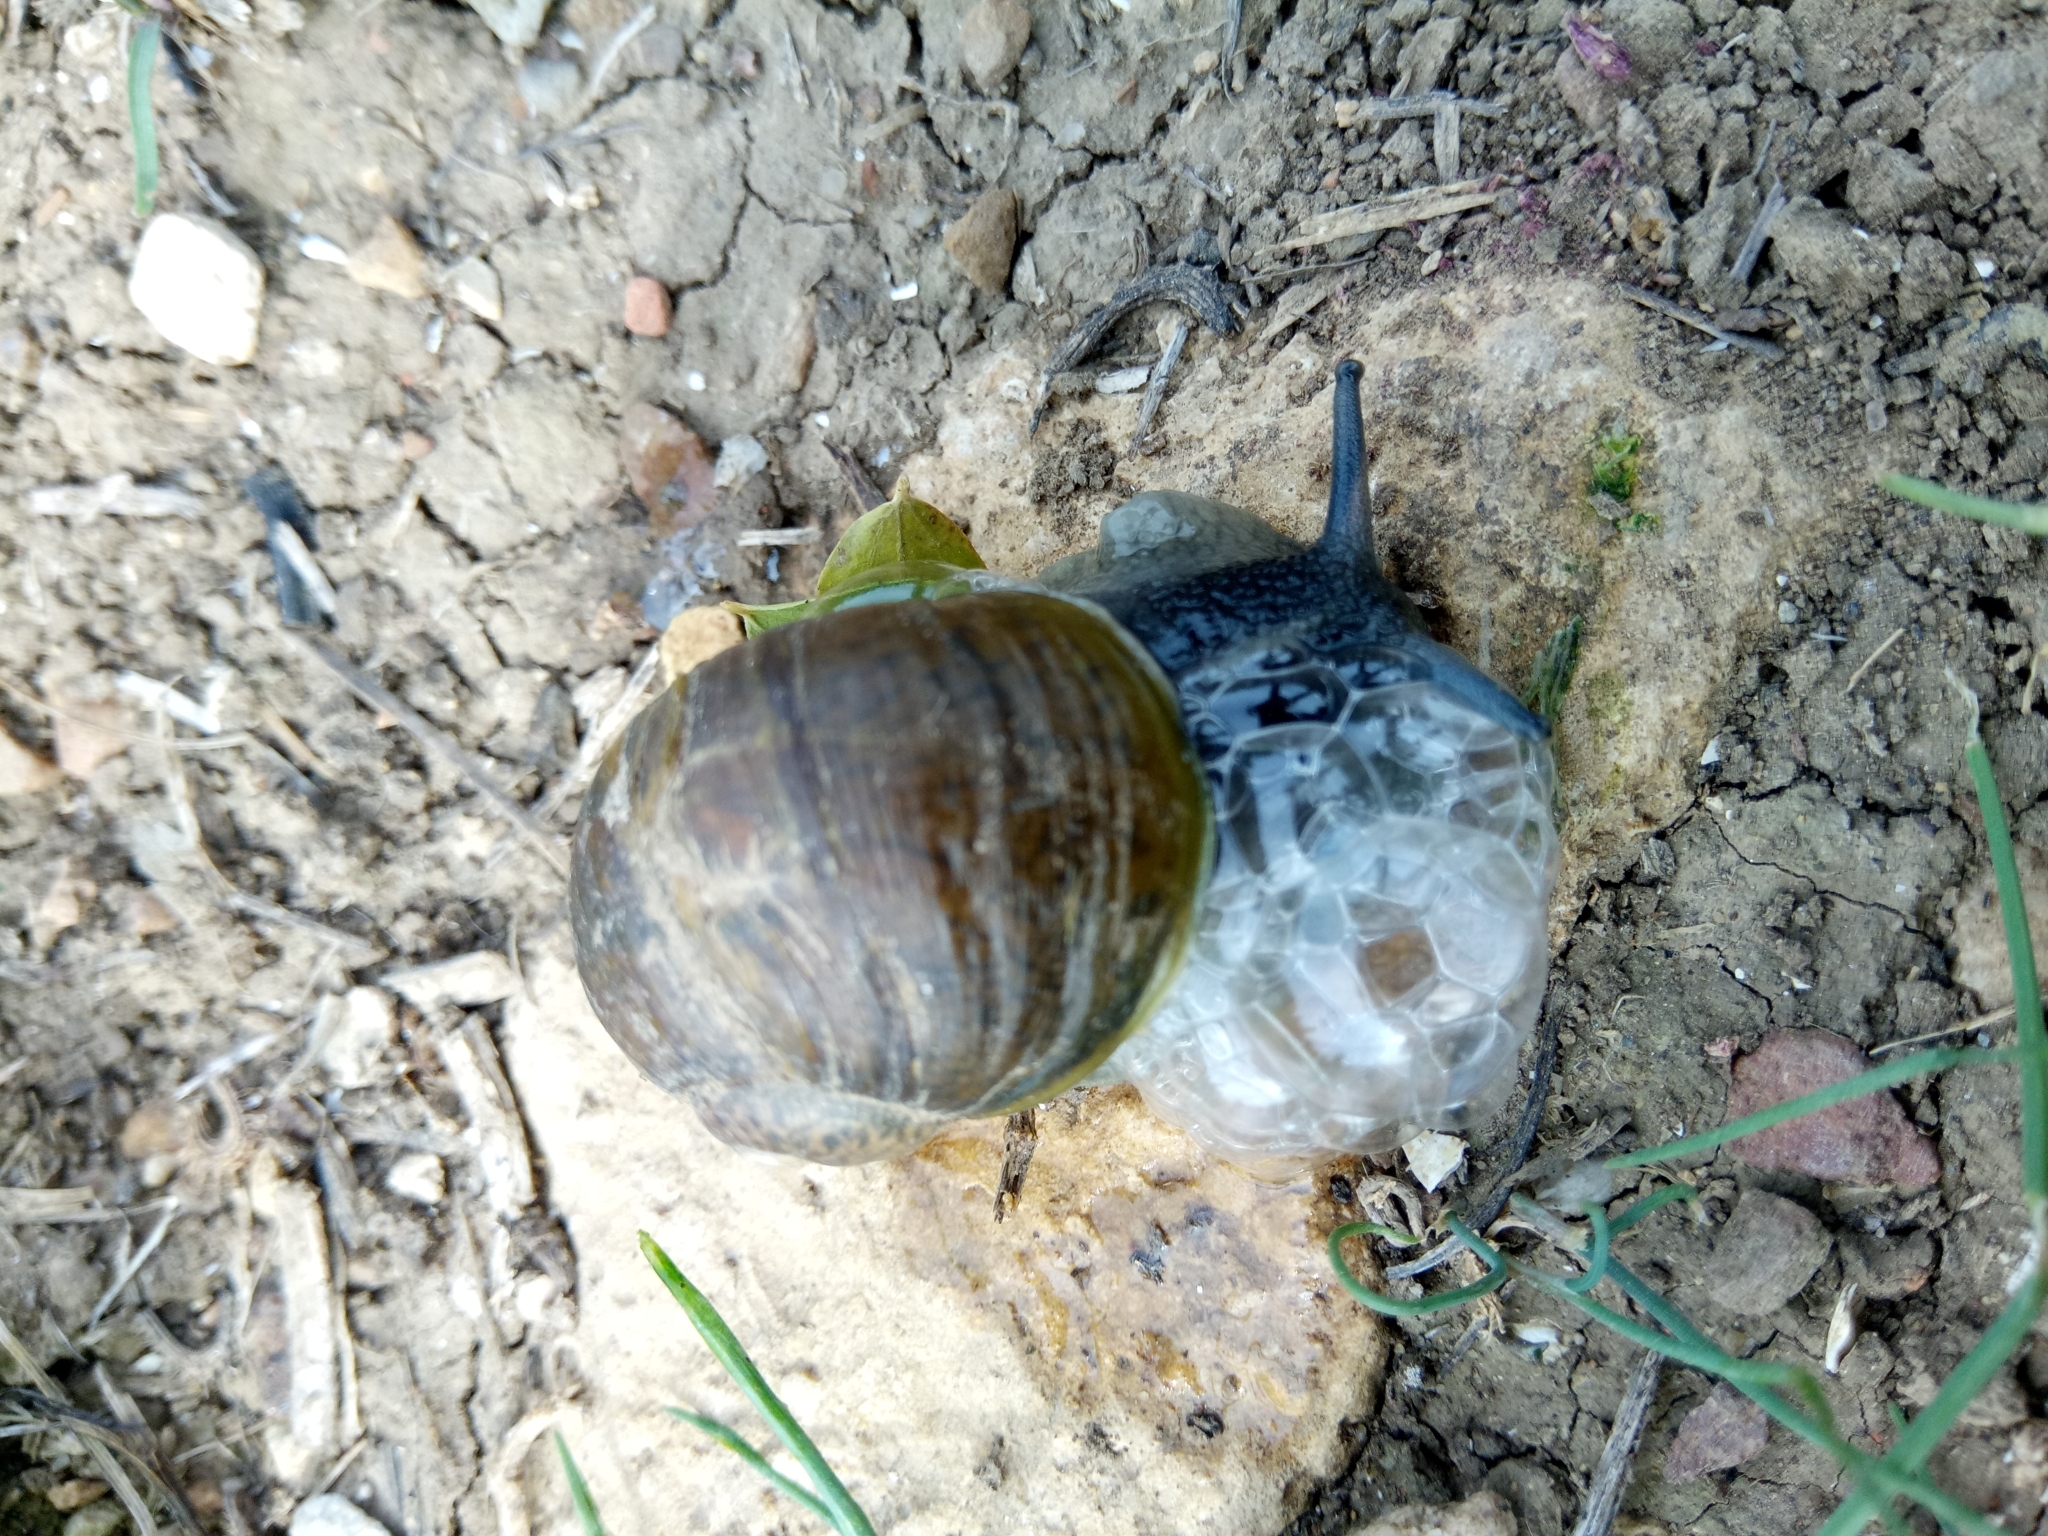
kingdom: Animalia
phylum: Mollusca
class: Gastropoda
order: Stylommatophora
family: Helicidae
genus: Cantareus
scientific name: Cantareus apertus
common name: Green gardensnail
